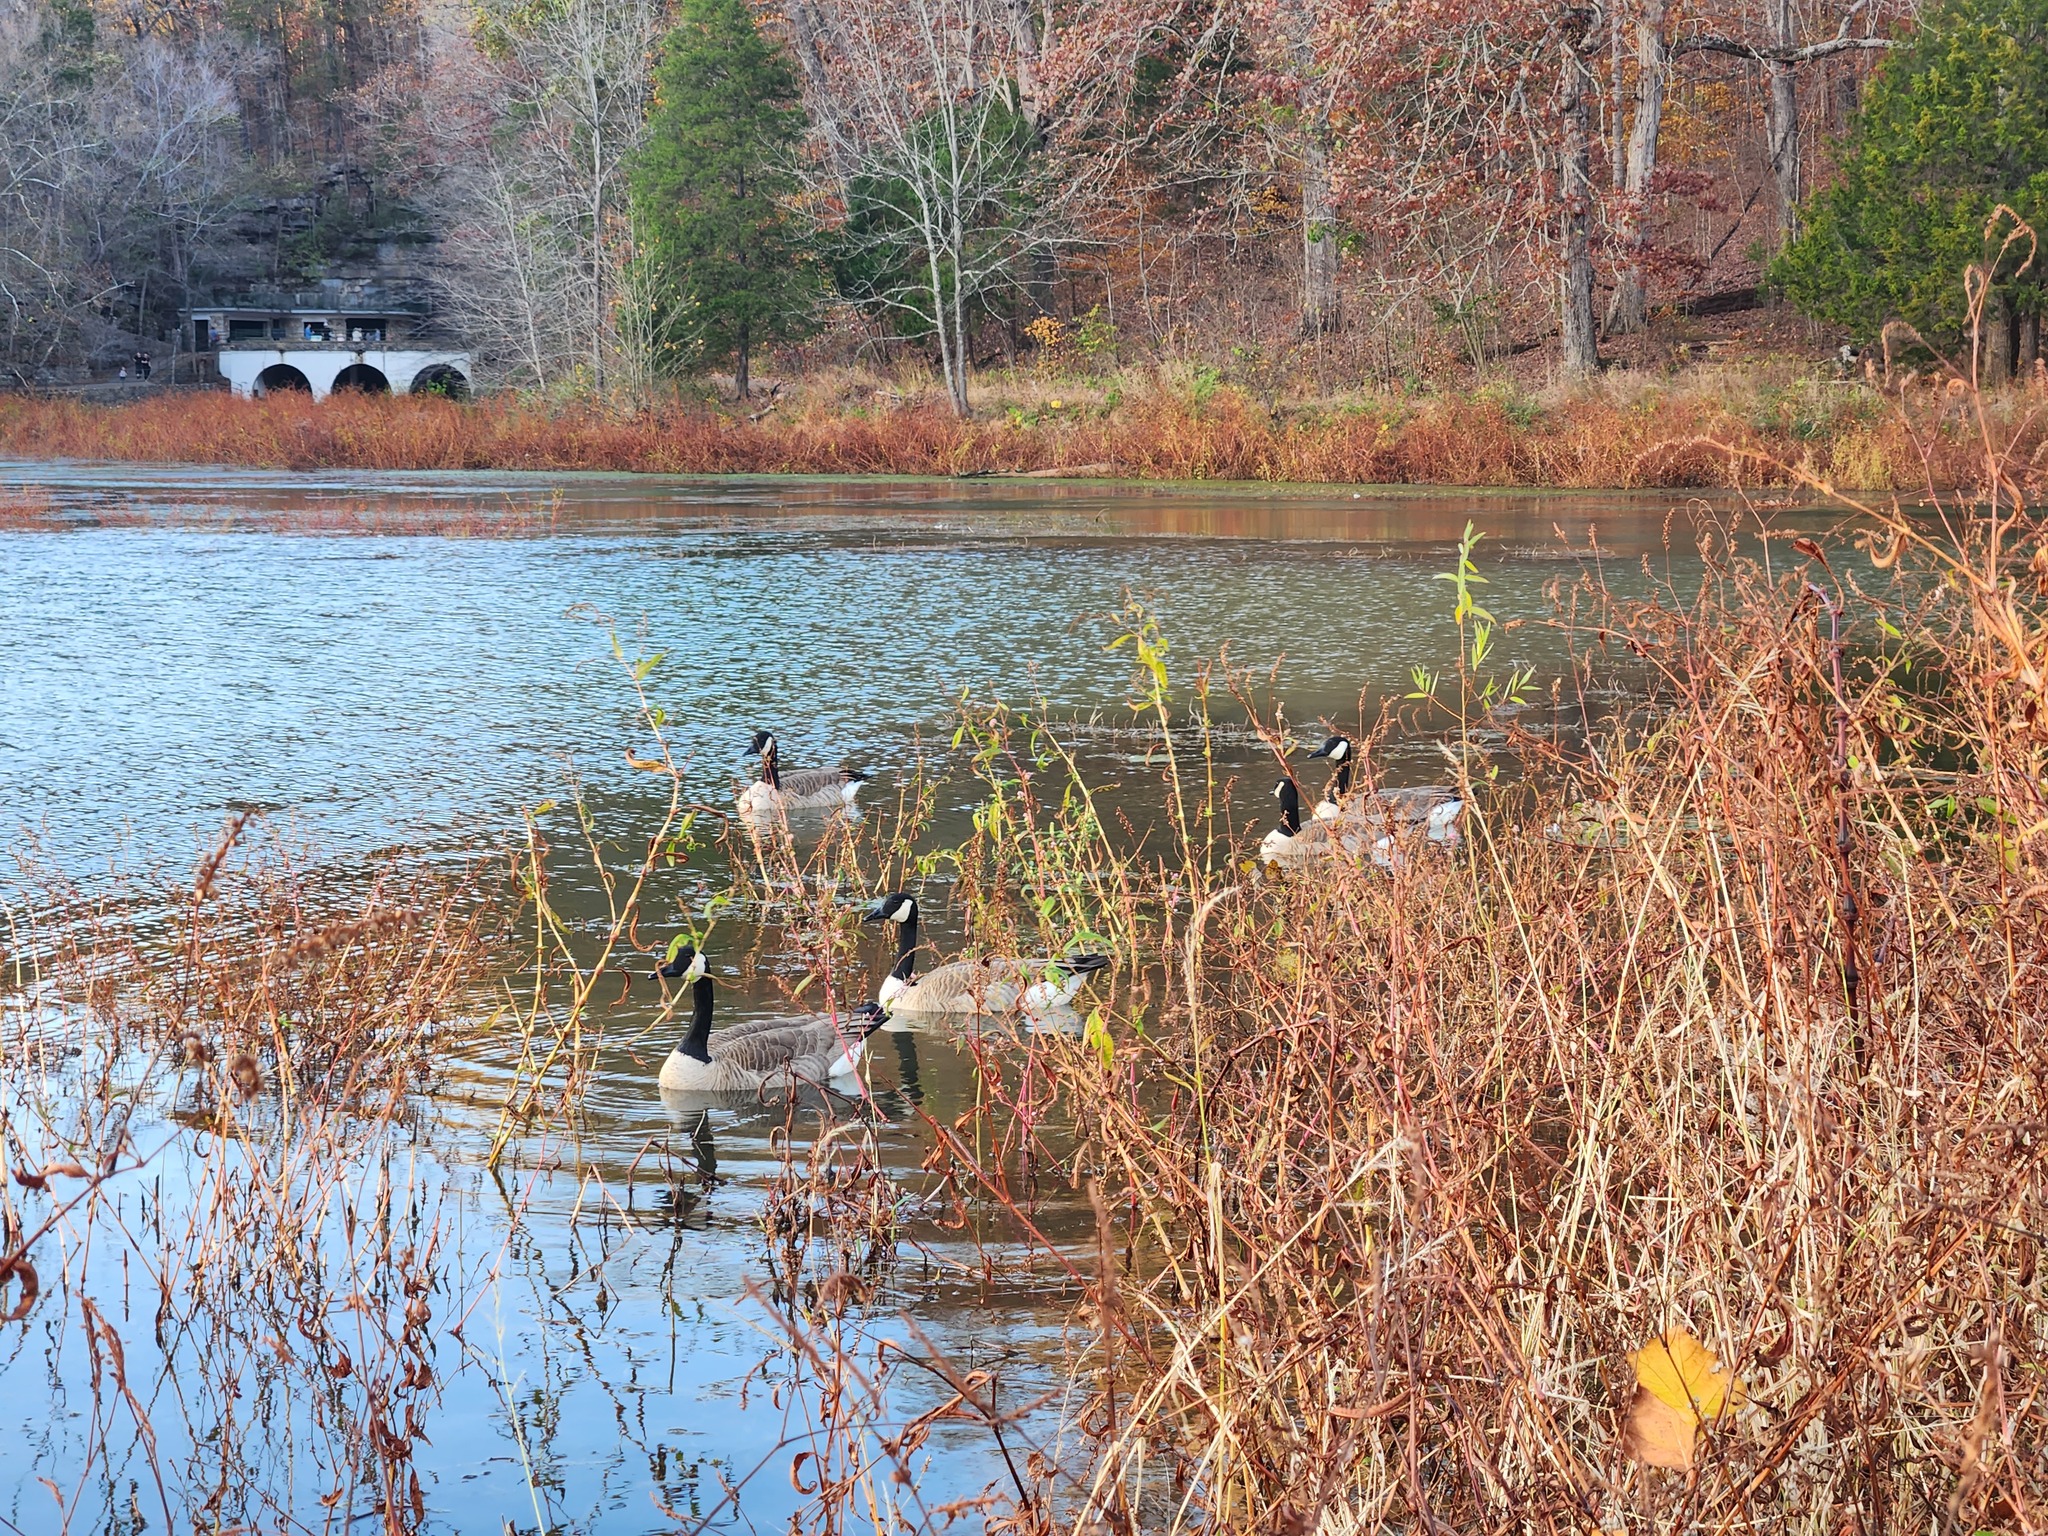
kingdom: Animalia
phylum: Chordata
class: Aves
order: Anseriformes
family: Anatidae
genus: Branta
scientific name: Branta canadensis
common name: Canada goose
